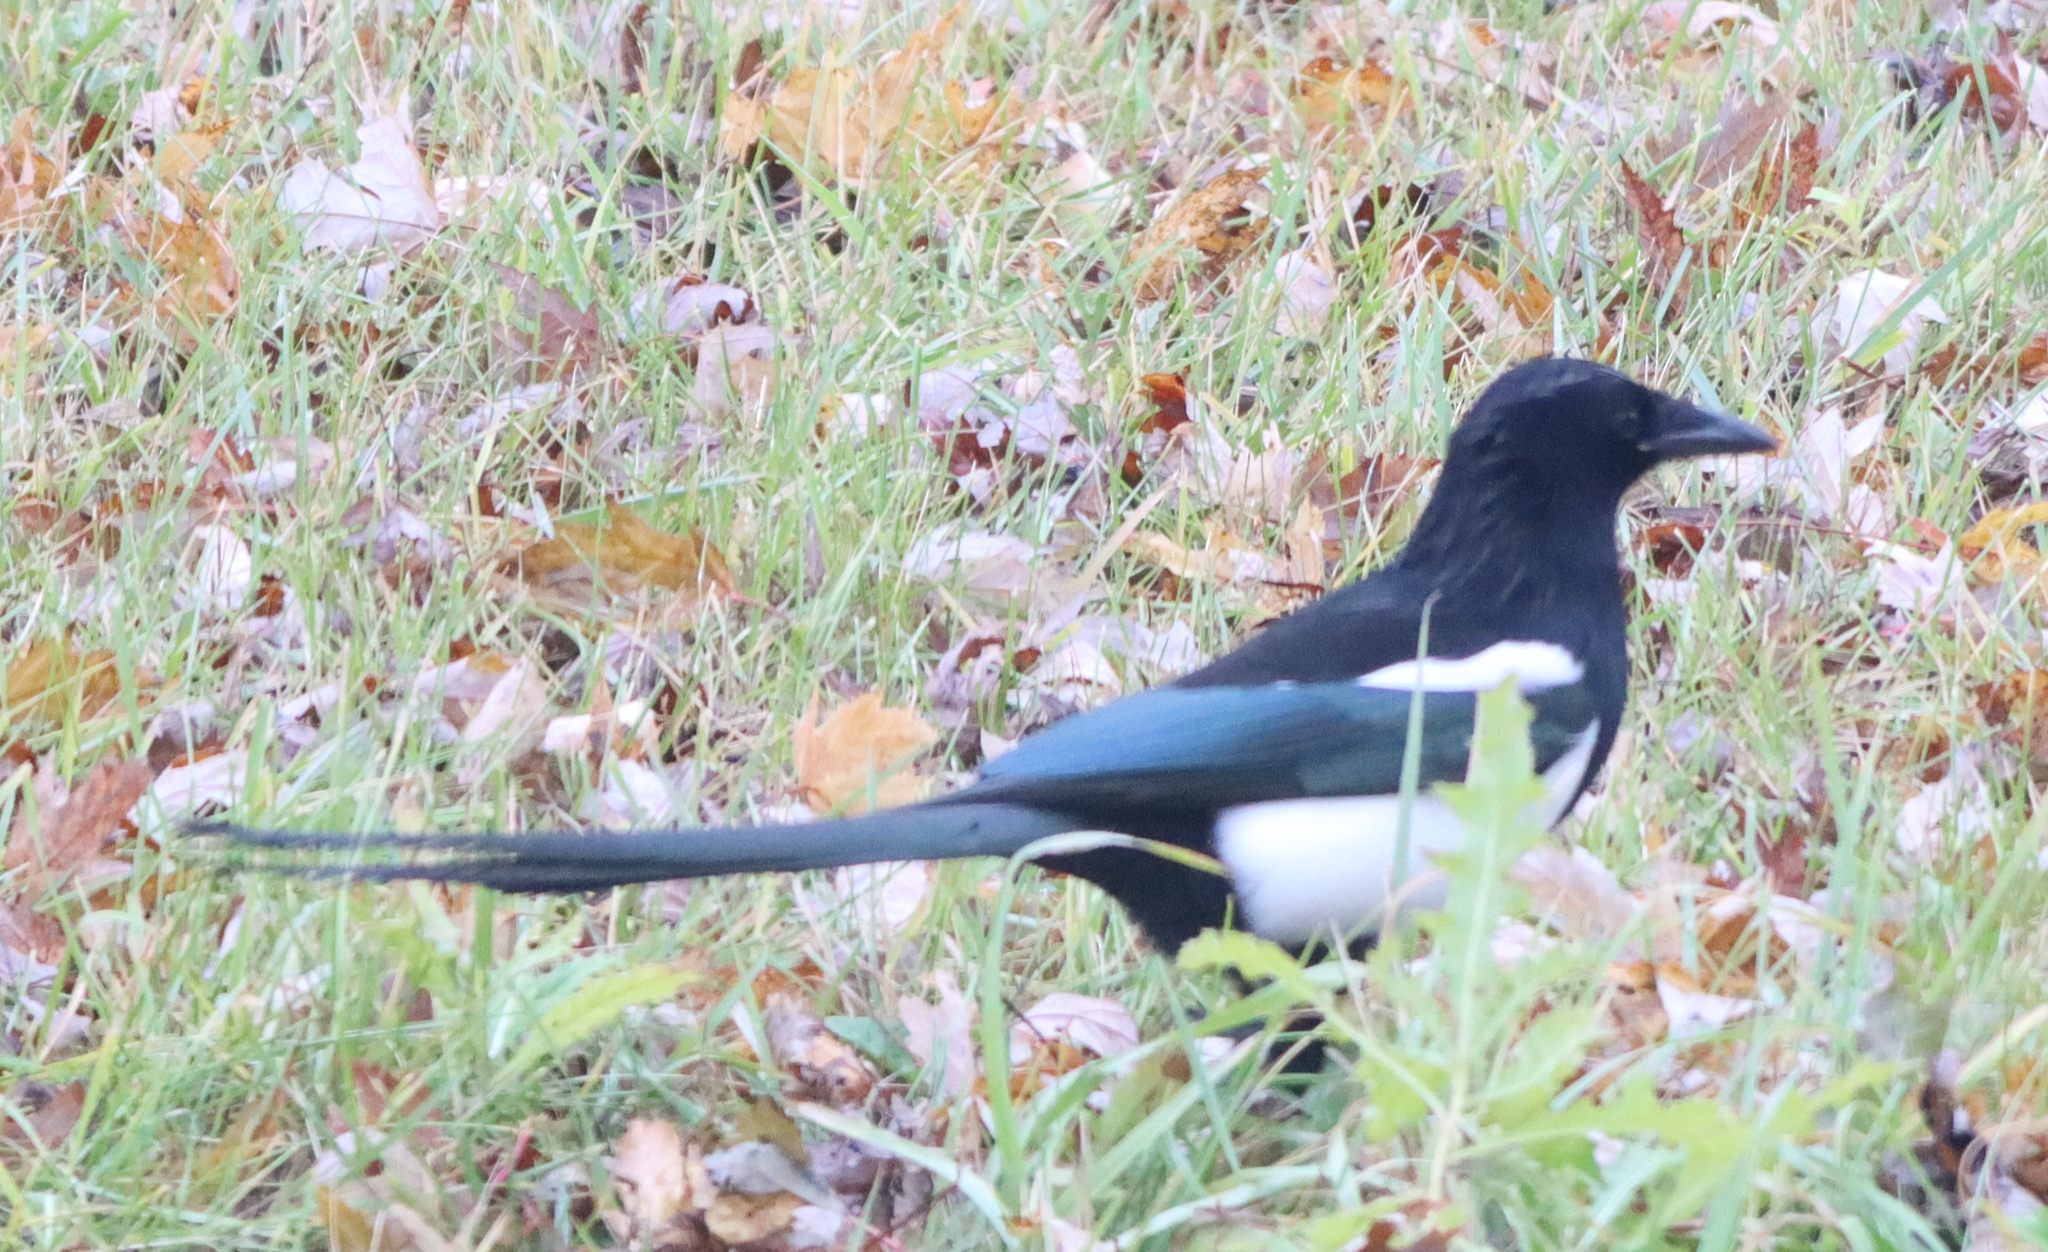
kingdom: Animalia
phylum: Chordata
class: Aves
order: Passeriformes
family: Corvidae
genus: Pica
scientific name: Pica hudsonia
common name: Black-billed magpie
